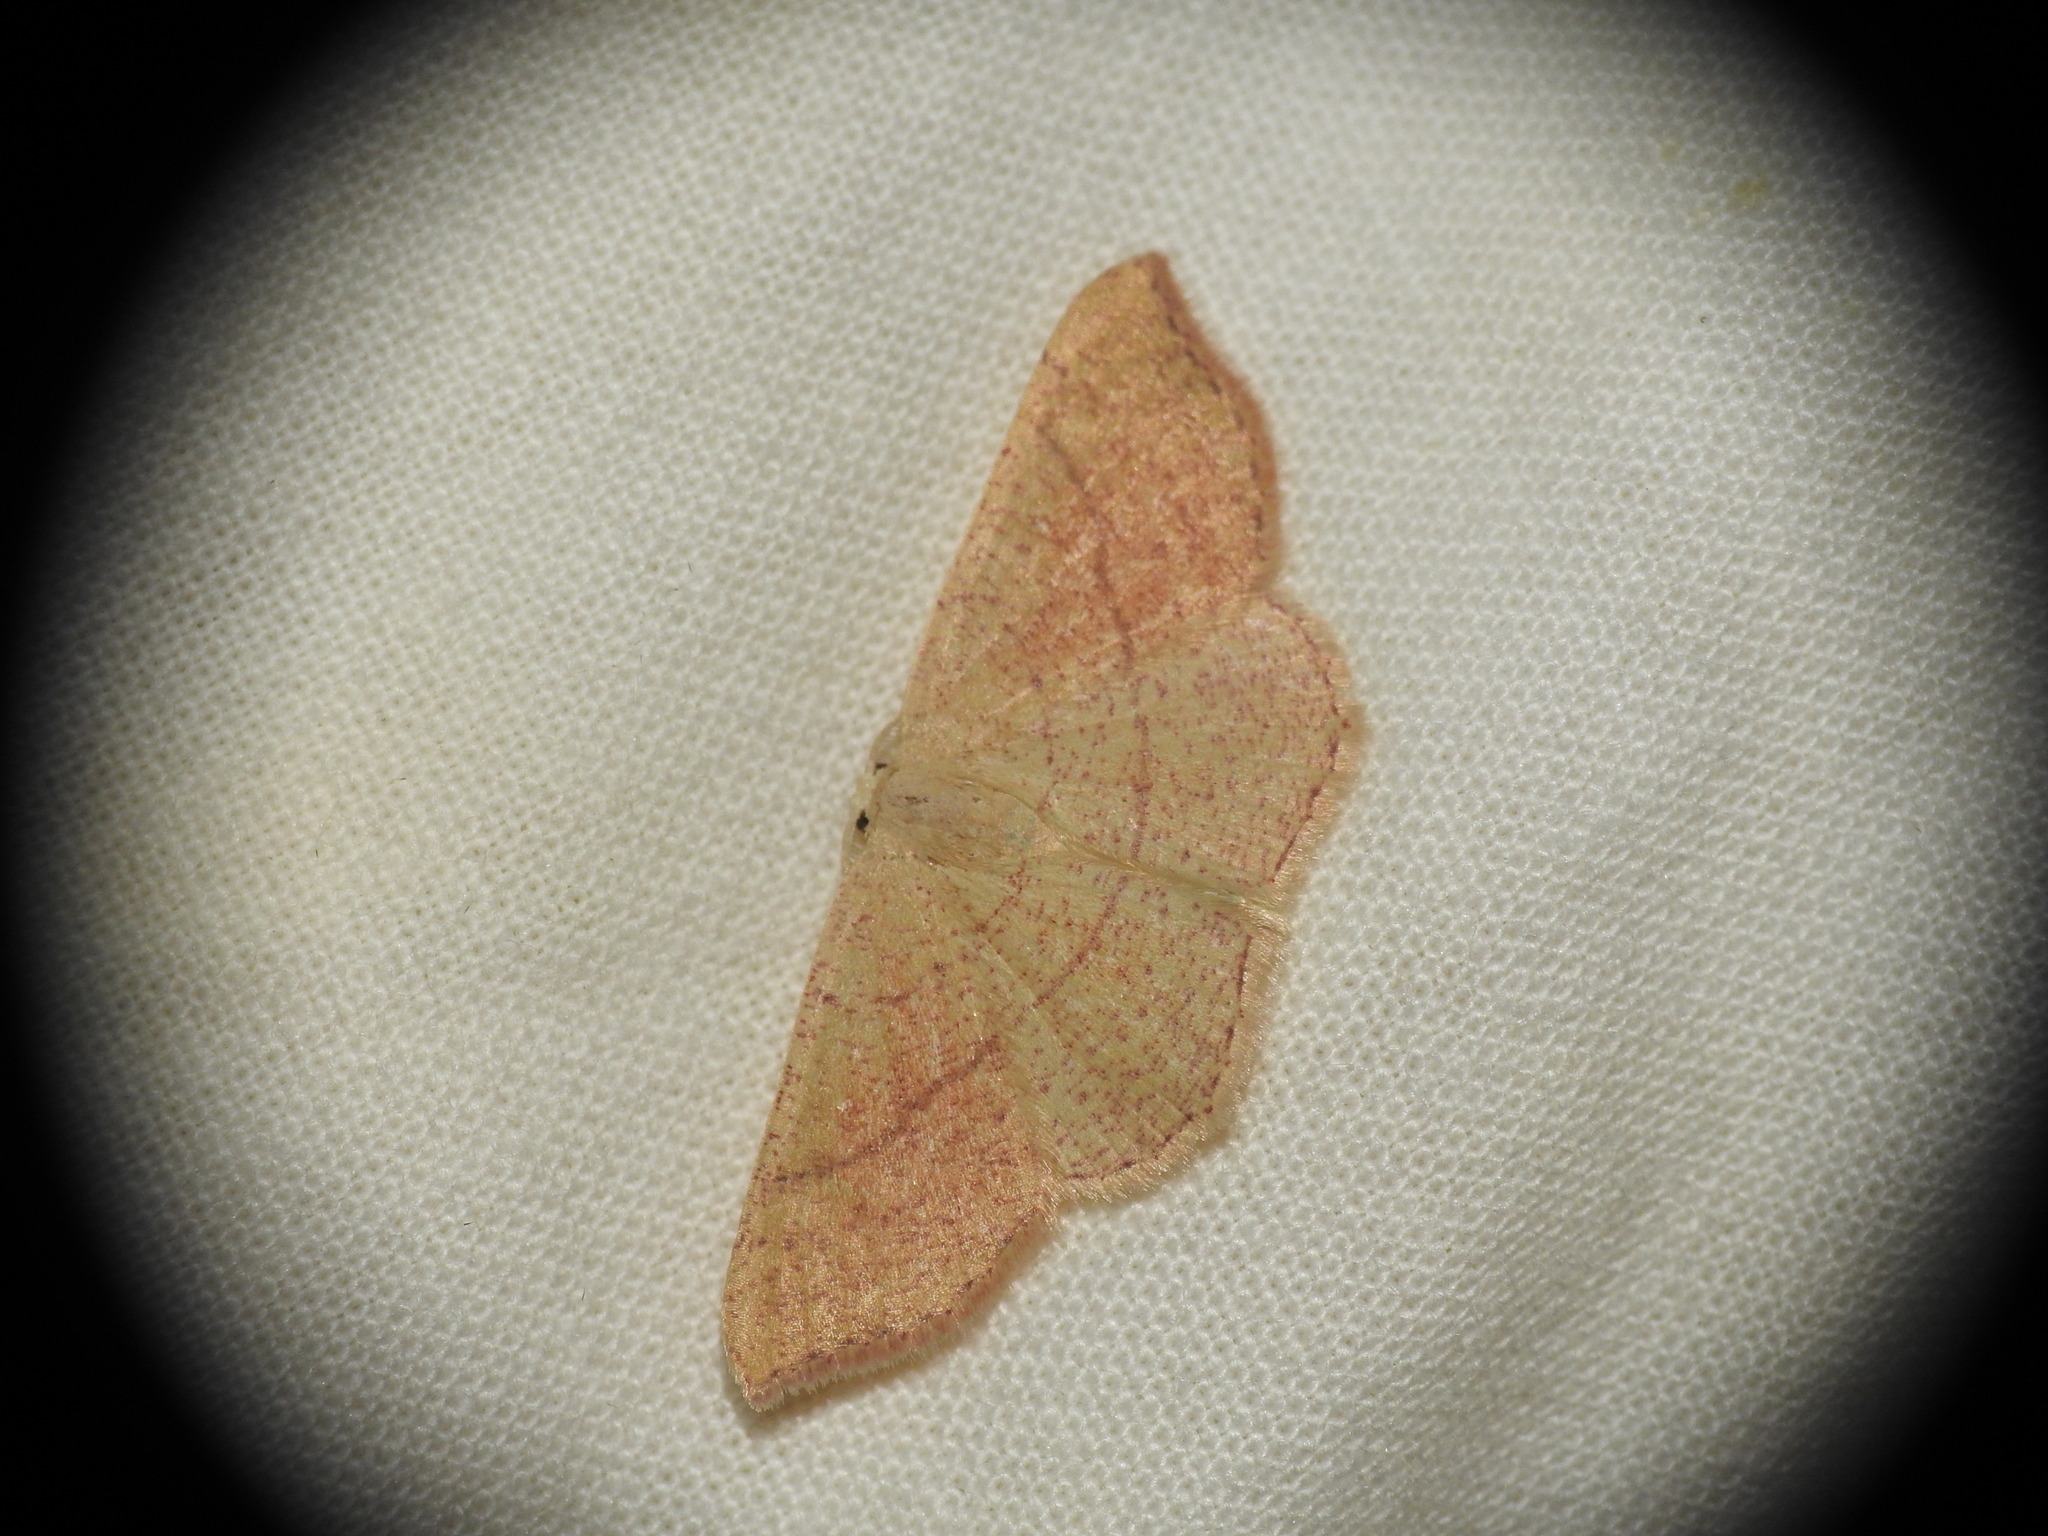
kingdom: Animalia
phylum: Arthropoda
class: Insecta
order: Lepidoptera
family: Geometridae
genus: Cyclophora
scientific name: Cyclophora suppunctaria
